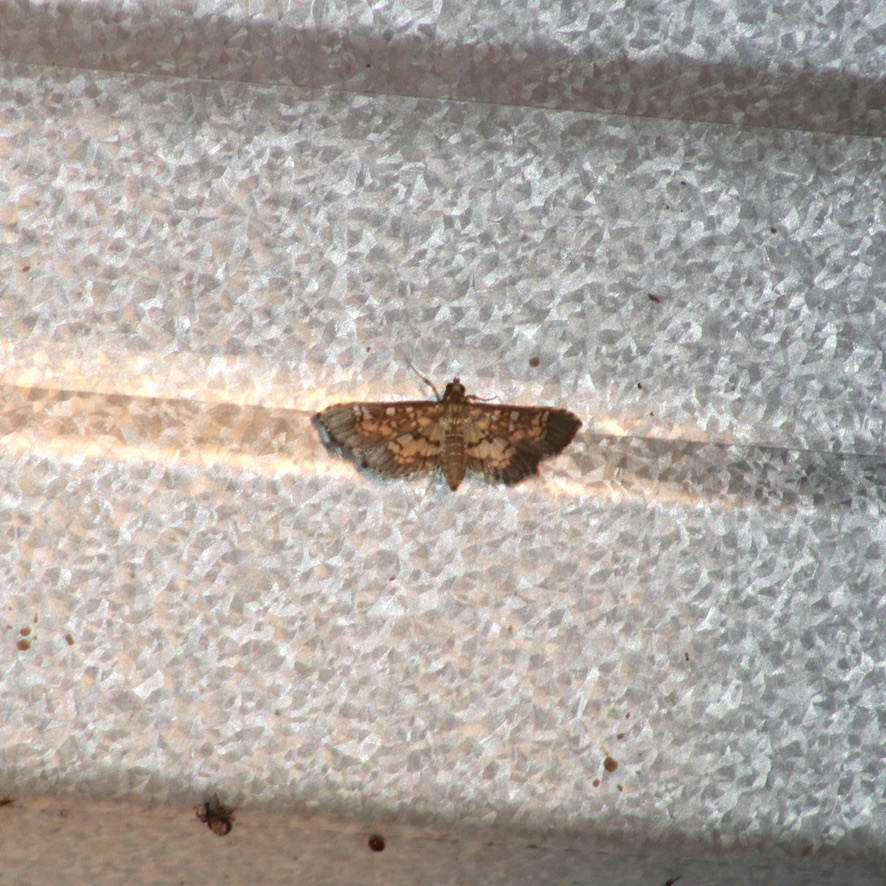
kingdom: Animalia
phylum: Arthropoda
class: Insecta
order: Lepidoptera
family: Crambidae
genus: Samea
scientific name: Samea ecclesialis
